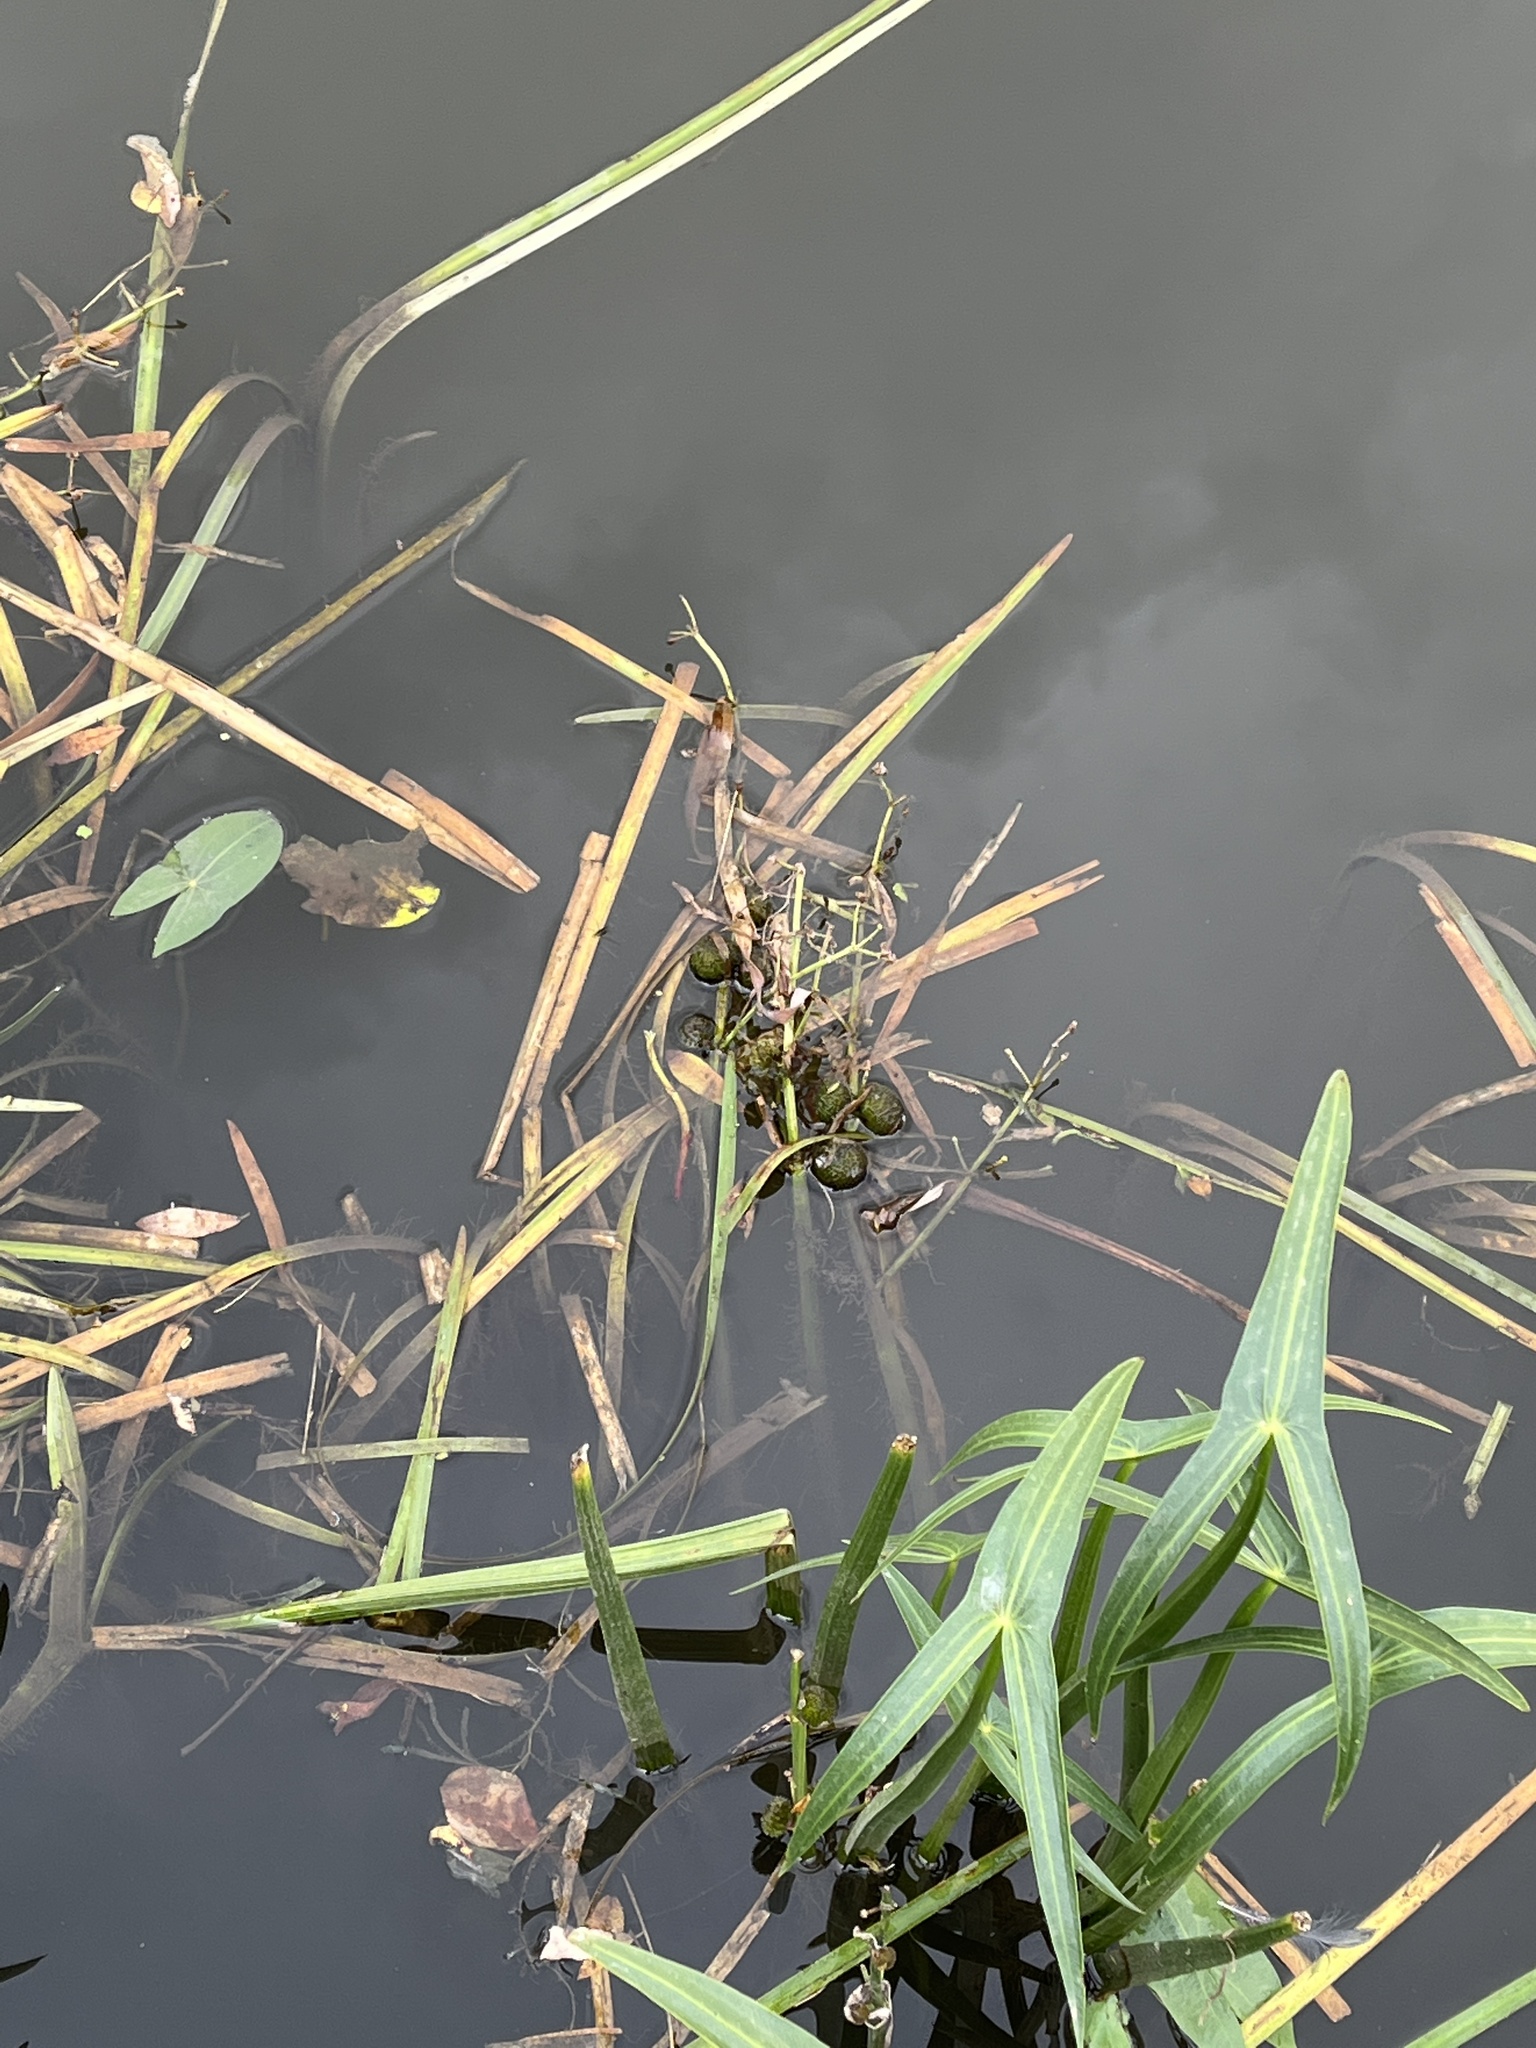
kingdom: Plantae
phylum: Tracheophyta
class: Liliopsida
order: Alismatales
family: Alismataceae
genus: Sagittaria
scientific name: Sagittaria sagittifolia
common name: Arrowhead
